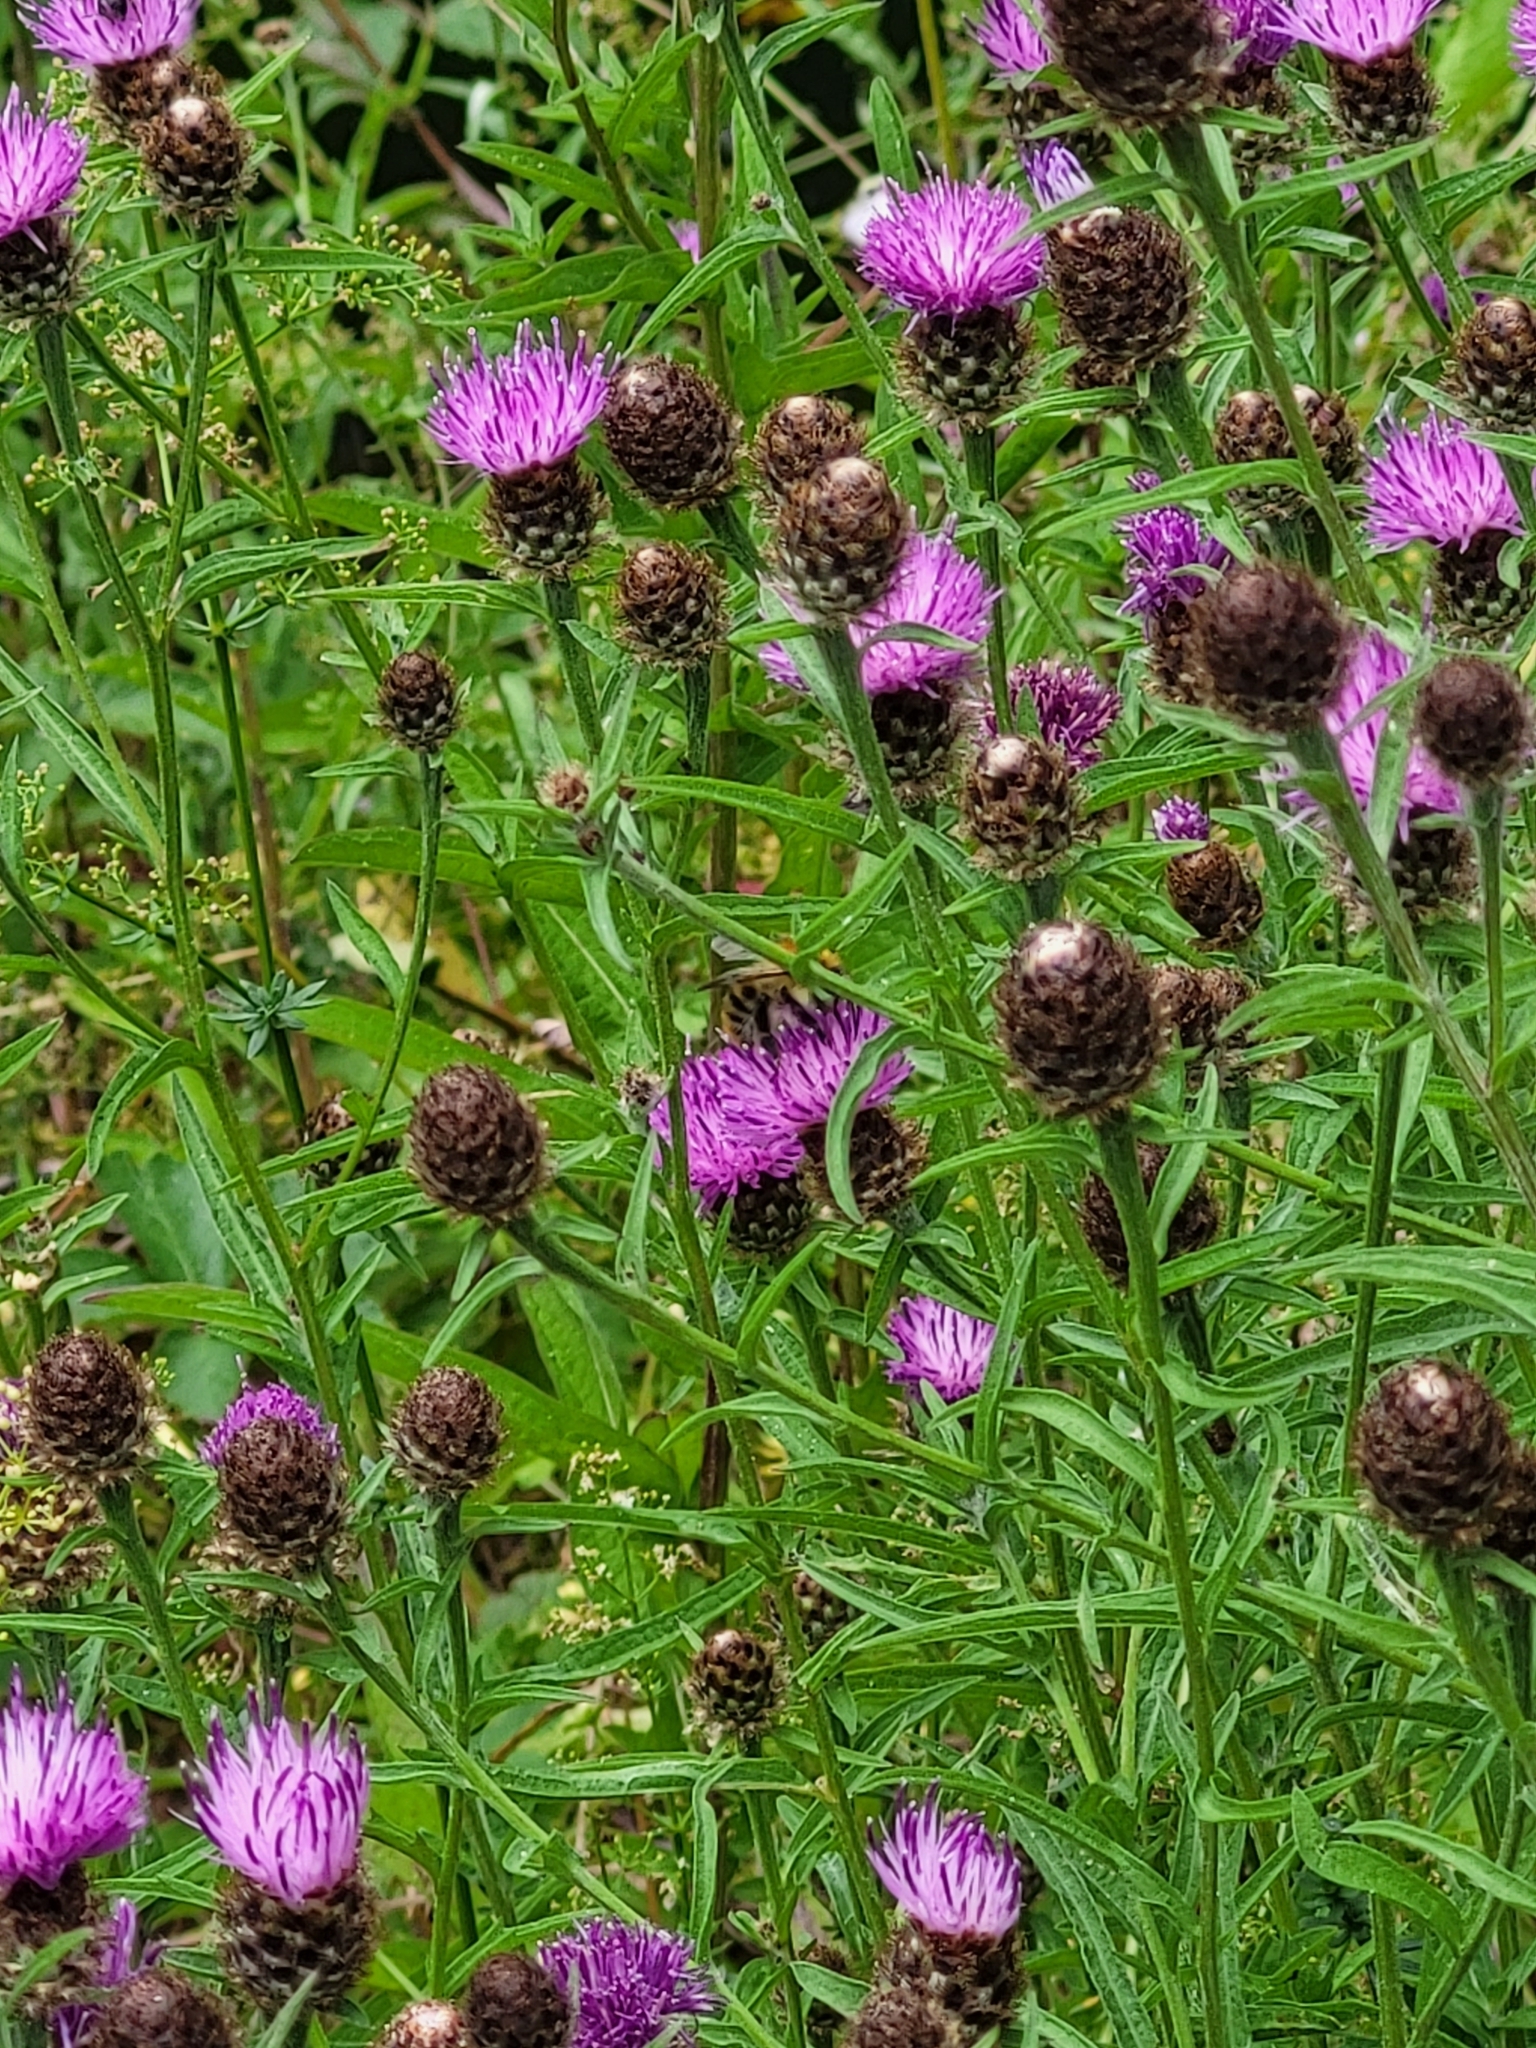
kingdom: Animalia
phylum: Arthropoda
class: Insecta
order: Hymenoptera
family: Apidae
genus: Bombus
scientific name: Bombus pascuorum
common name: Common carder bee
